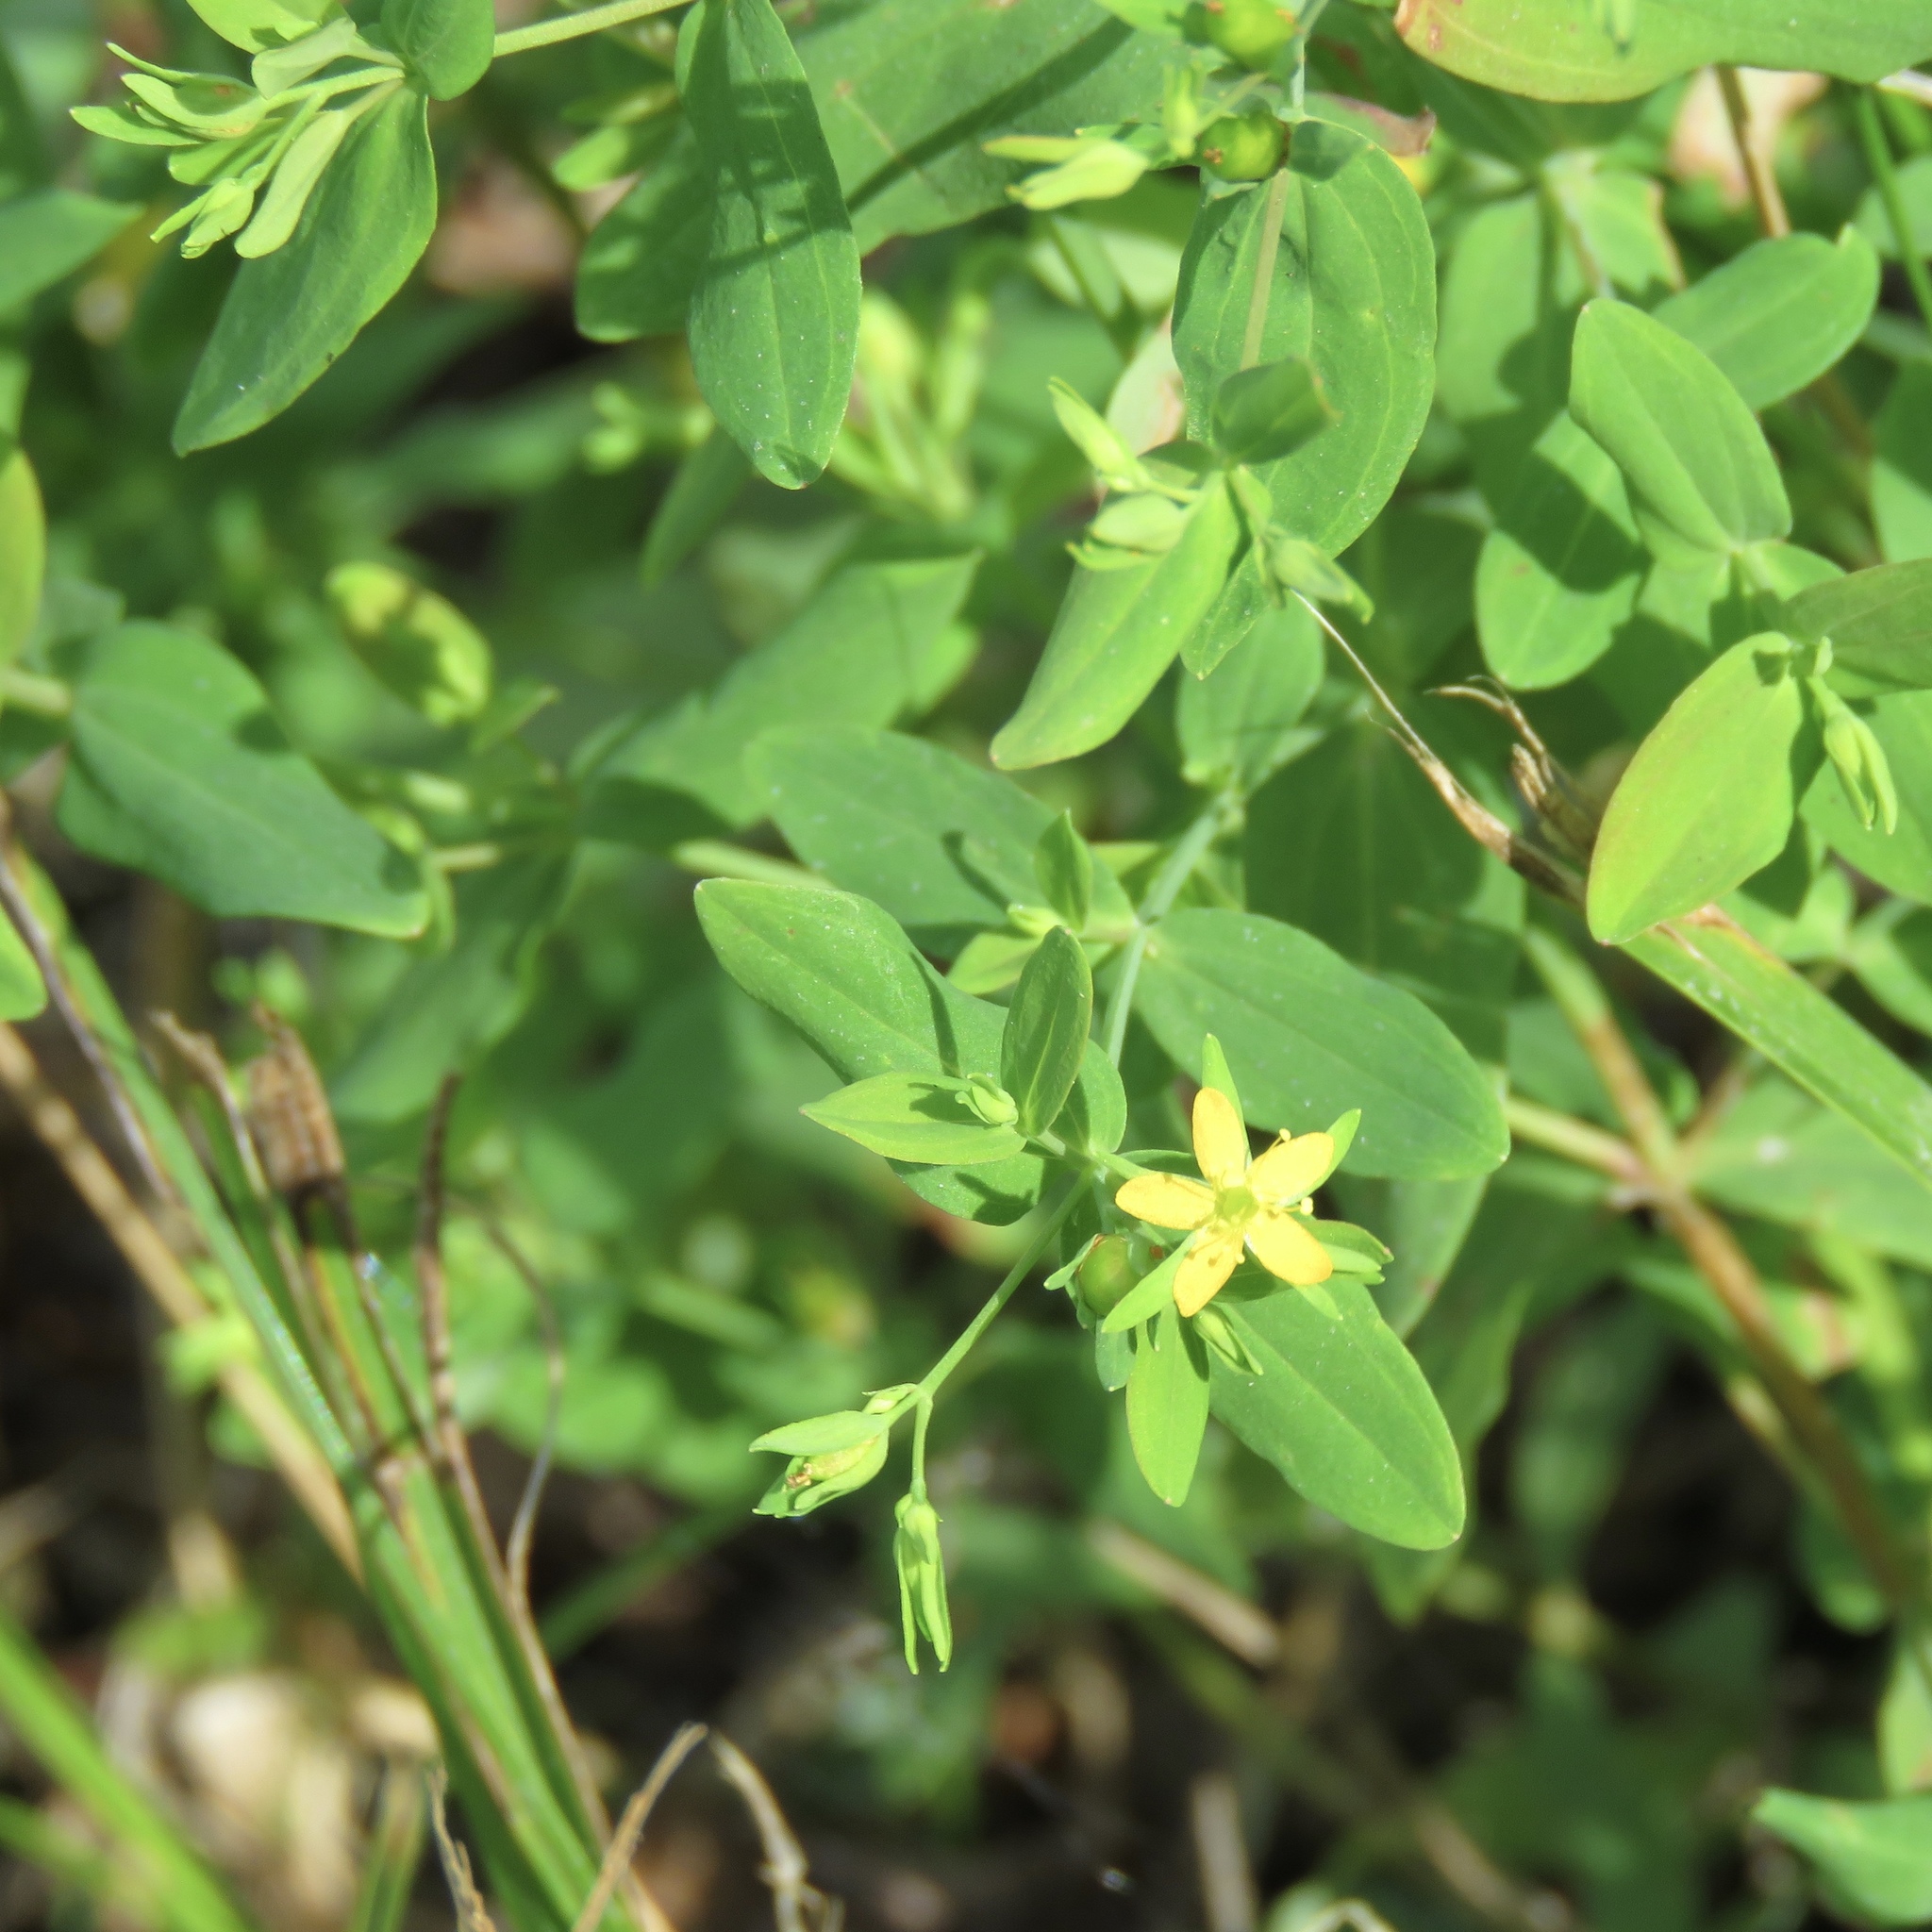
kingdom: Plantae
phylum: Tracheophyta
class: Magnoliopsida
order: Malpighiales
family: Hypericaceae
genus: Hypericum
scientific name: Hypericum mutilum
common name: Dwarf st. john's-wort
